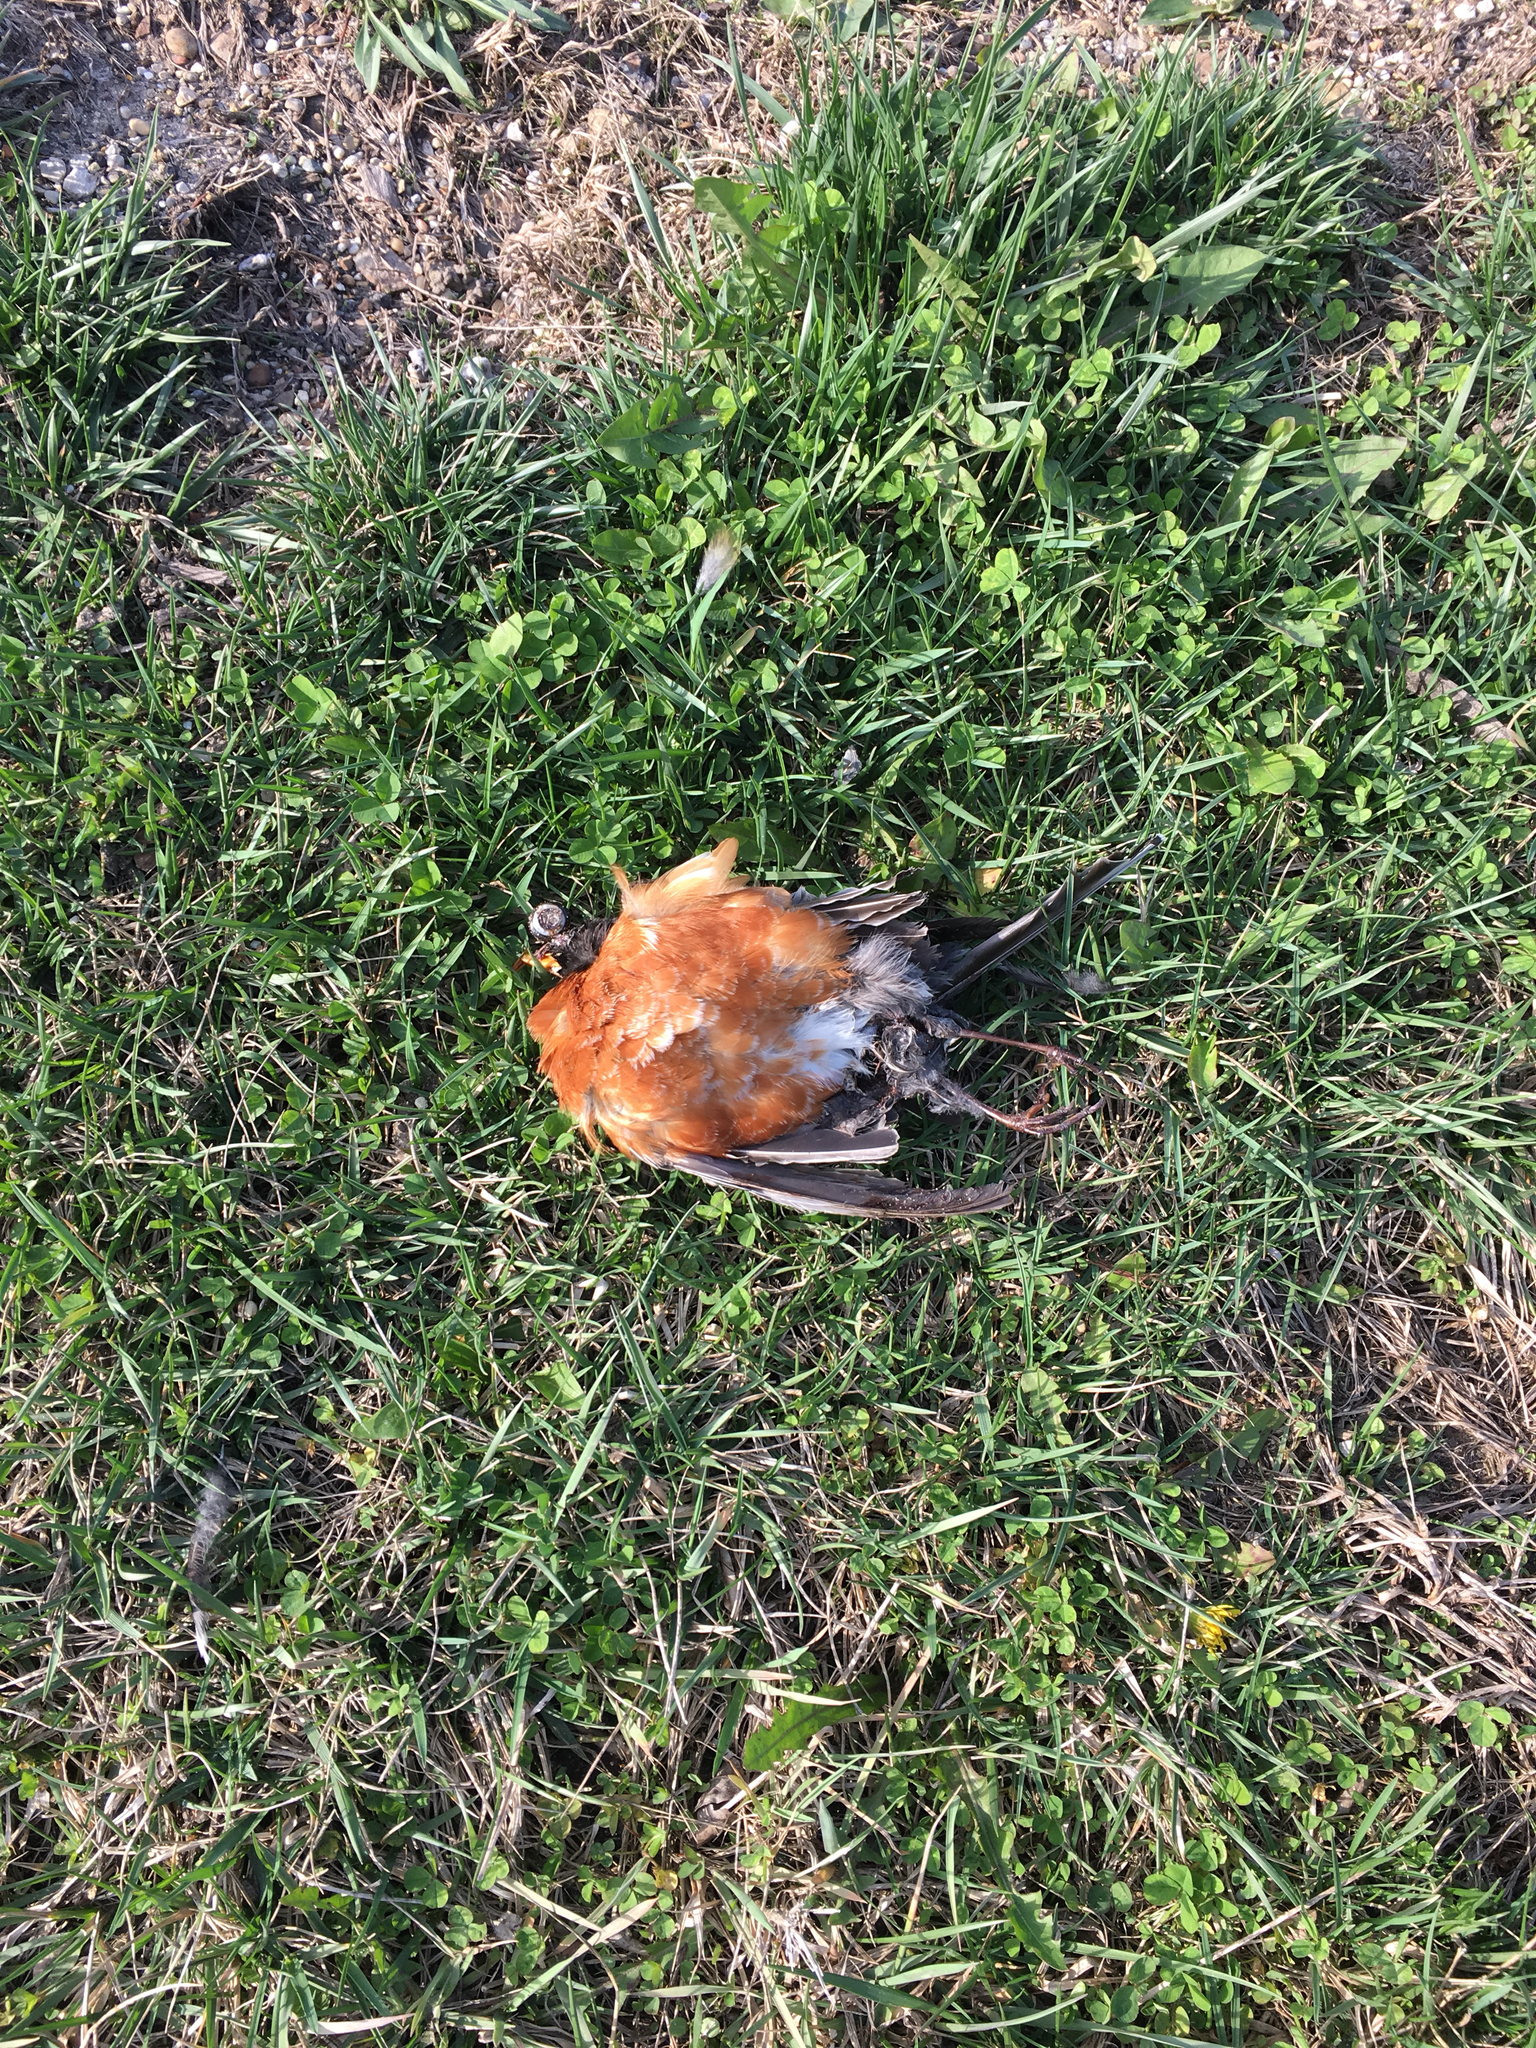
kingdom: Animalia
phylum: Chordata
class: Aves
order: Passeriformes
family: Turdidae
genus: Turdus
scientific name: Turdus migratorius
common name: American robin
